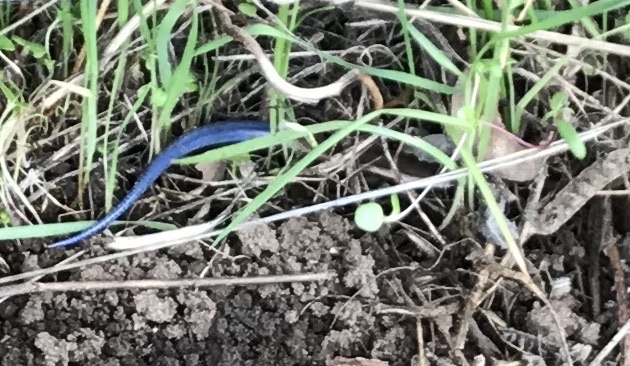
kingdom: Animalia
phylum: Chordata
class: Squamata
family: Scincidae
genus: Plestiodon
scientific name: Plestiodon skiltonianus
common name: Coronado island skink [interparietalis]
